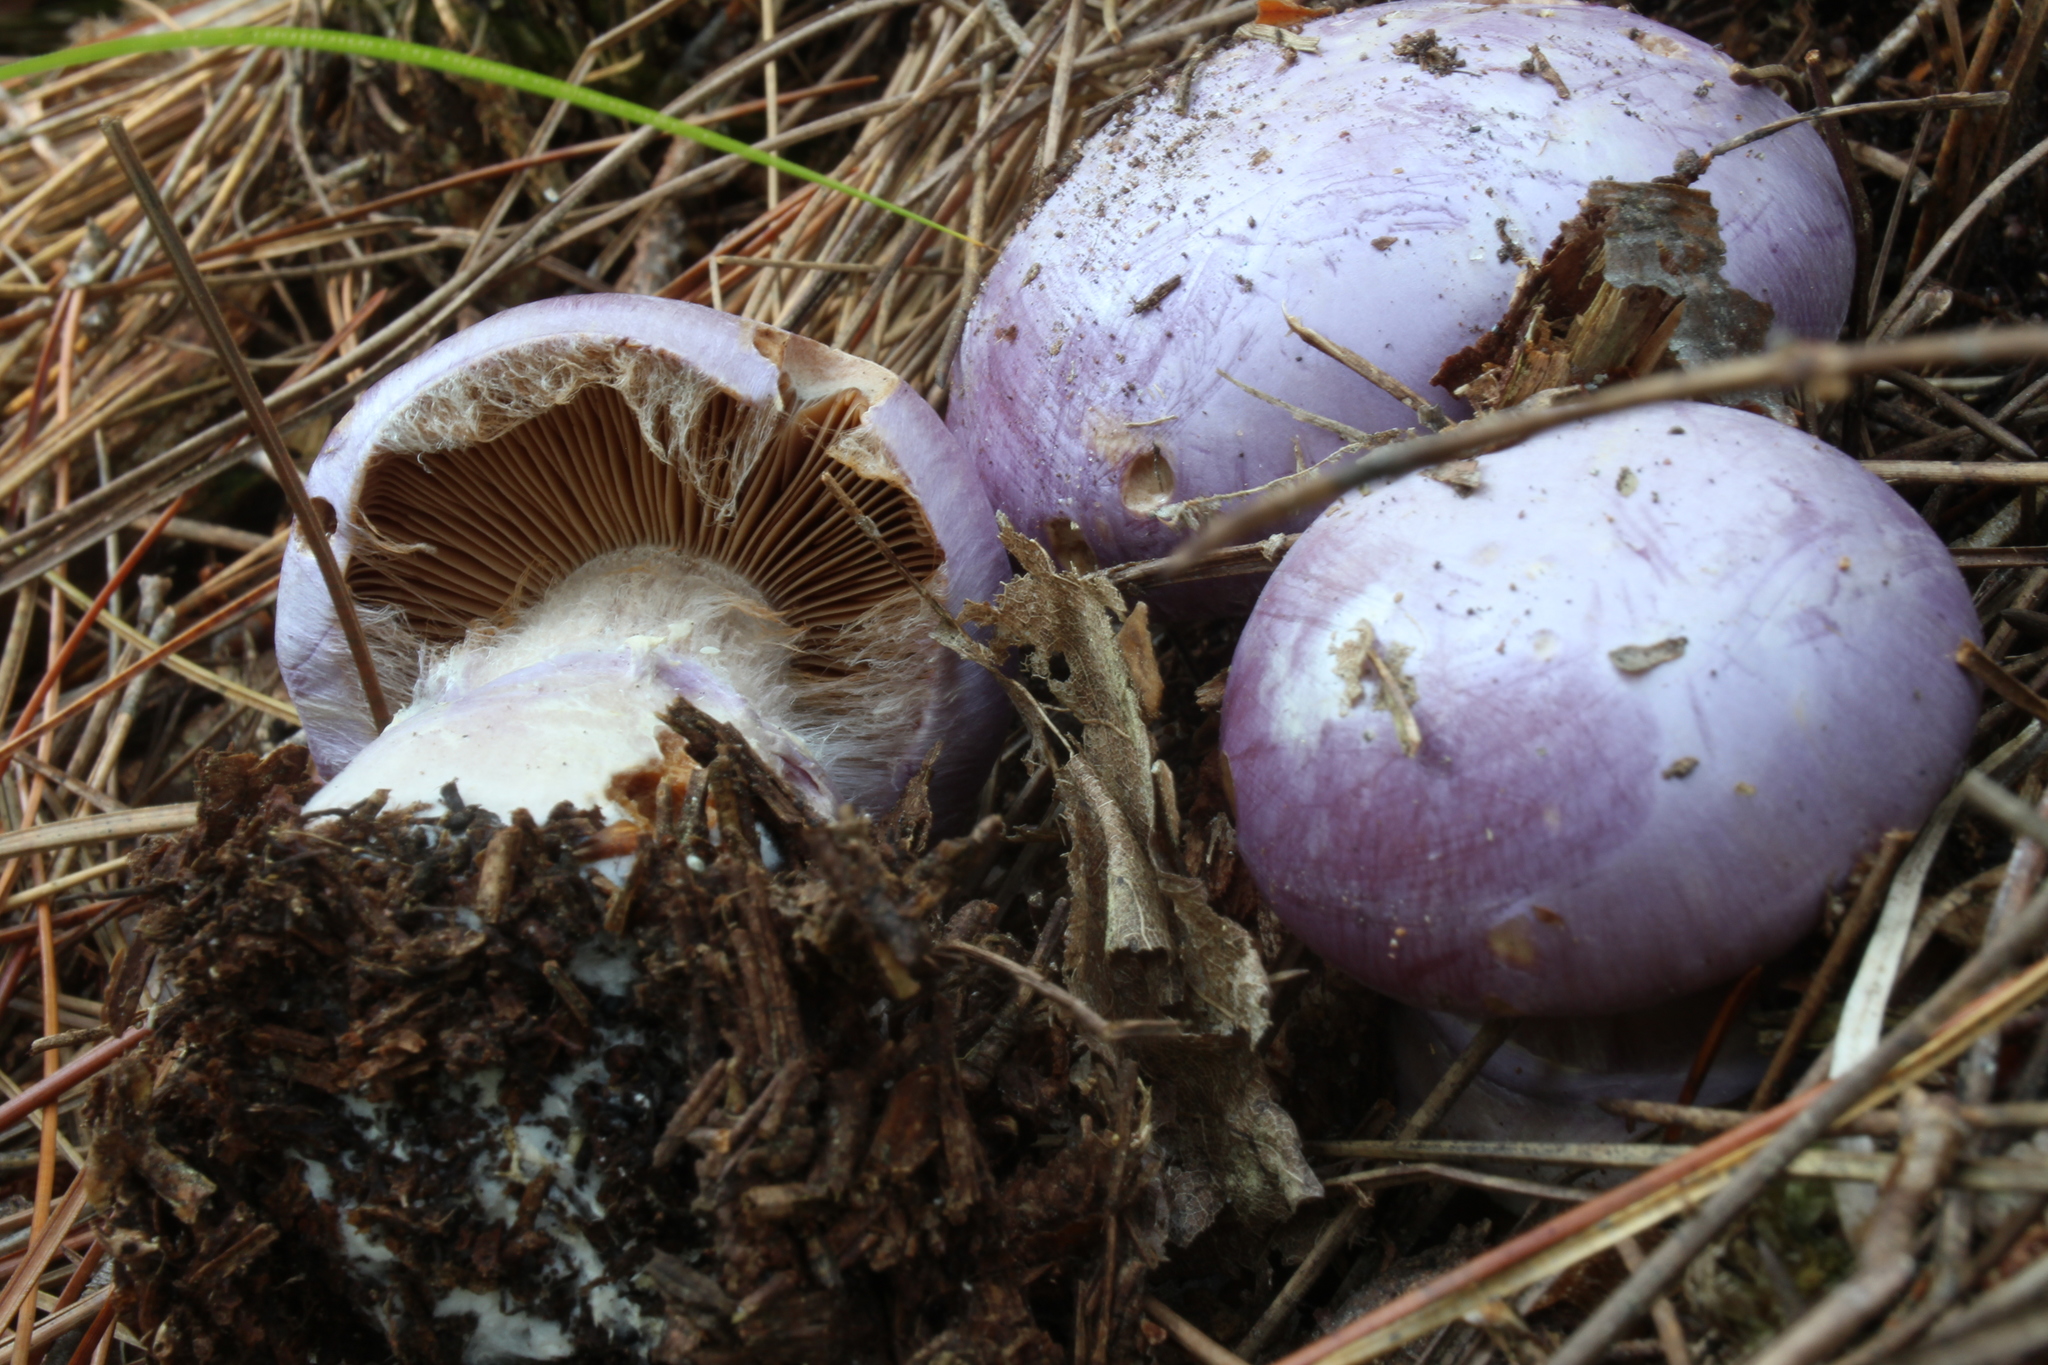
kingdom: Fungi
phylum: Basidiomycota
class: Agaricomycetes
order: Agaricales
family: Cortinariaceae
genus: Cortinarius
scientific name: Cortinarius traganus
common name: Gassy webcap
